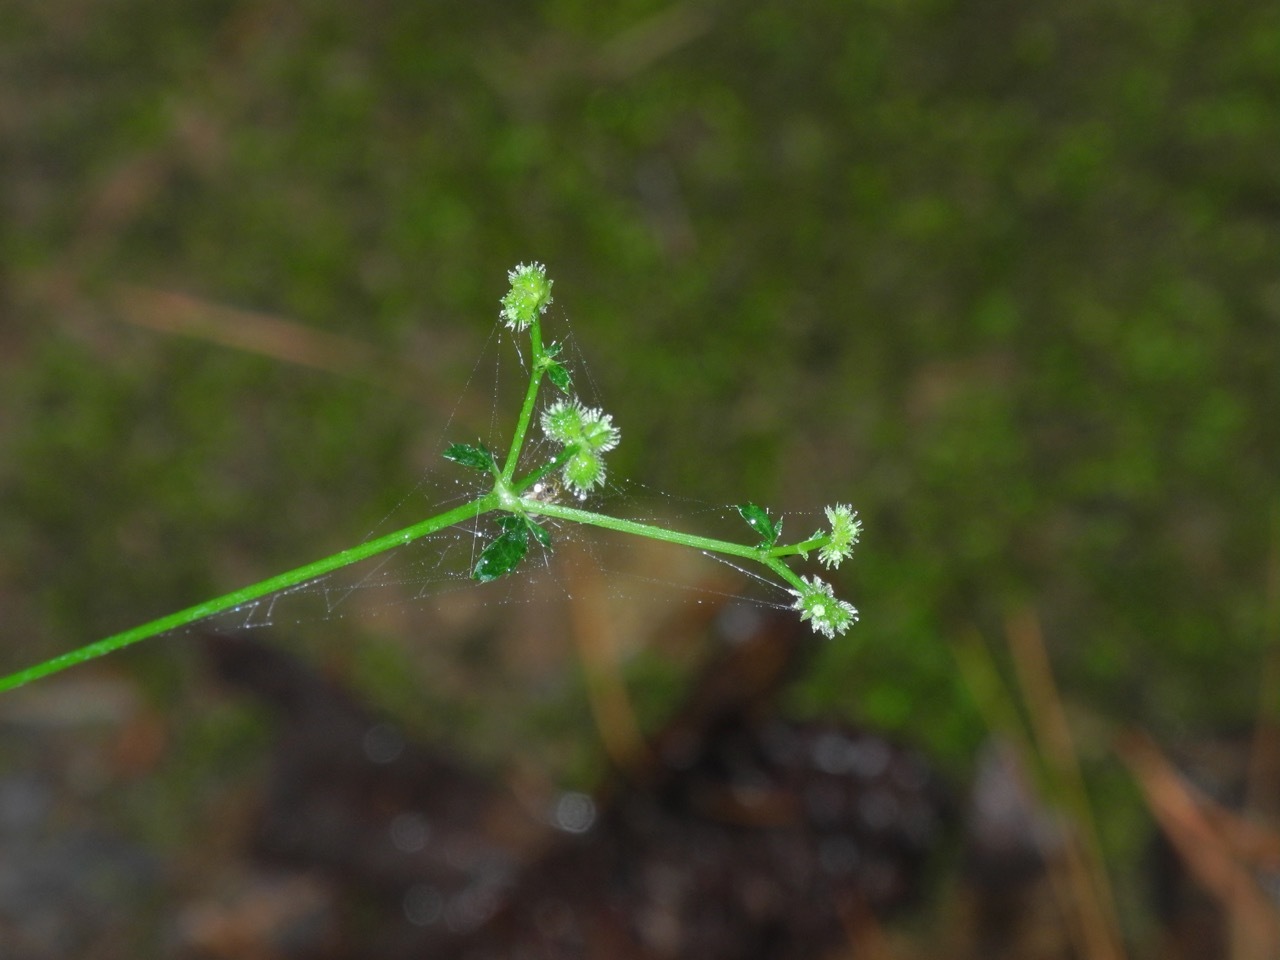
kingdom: Plantae
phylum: Tracheophyta
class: Magnoliopsida
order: Apiales
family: Apiaceae
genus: Sanicula
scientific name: Sanicula canadensis
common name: Canada sanicle
